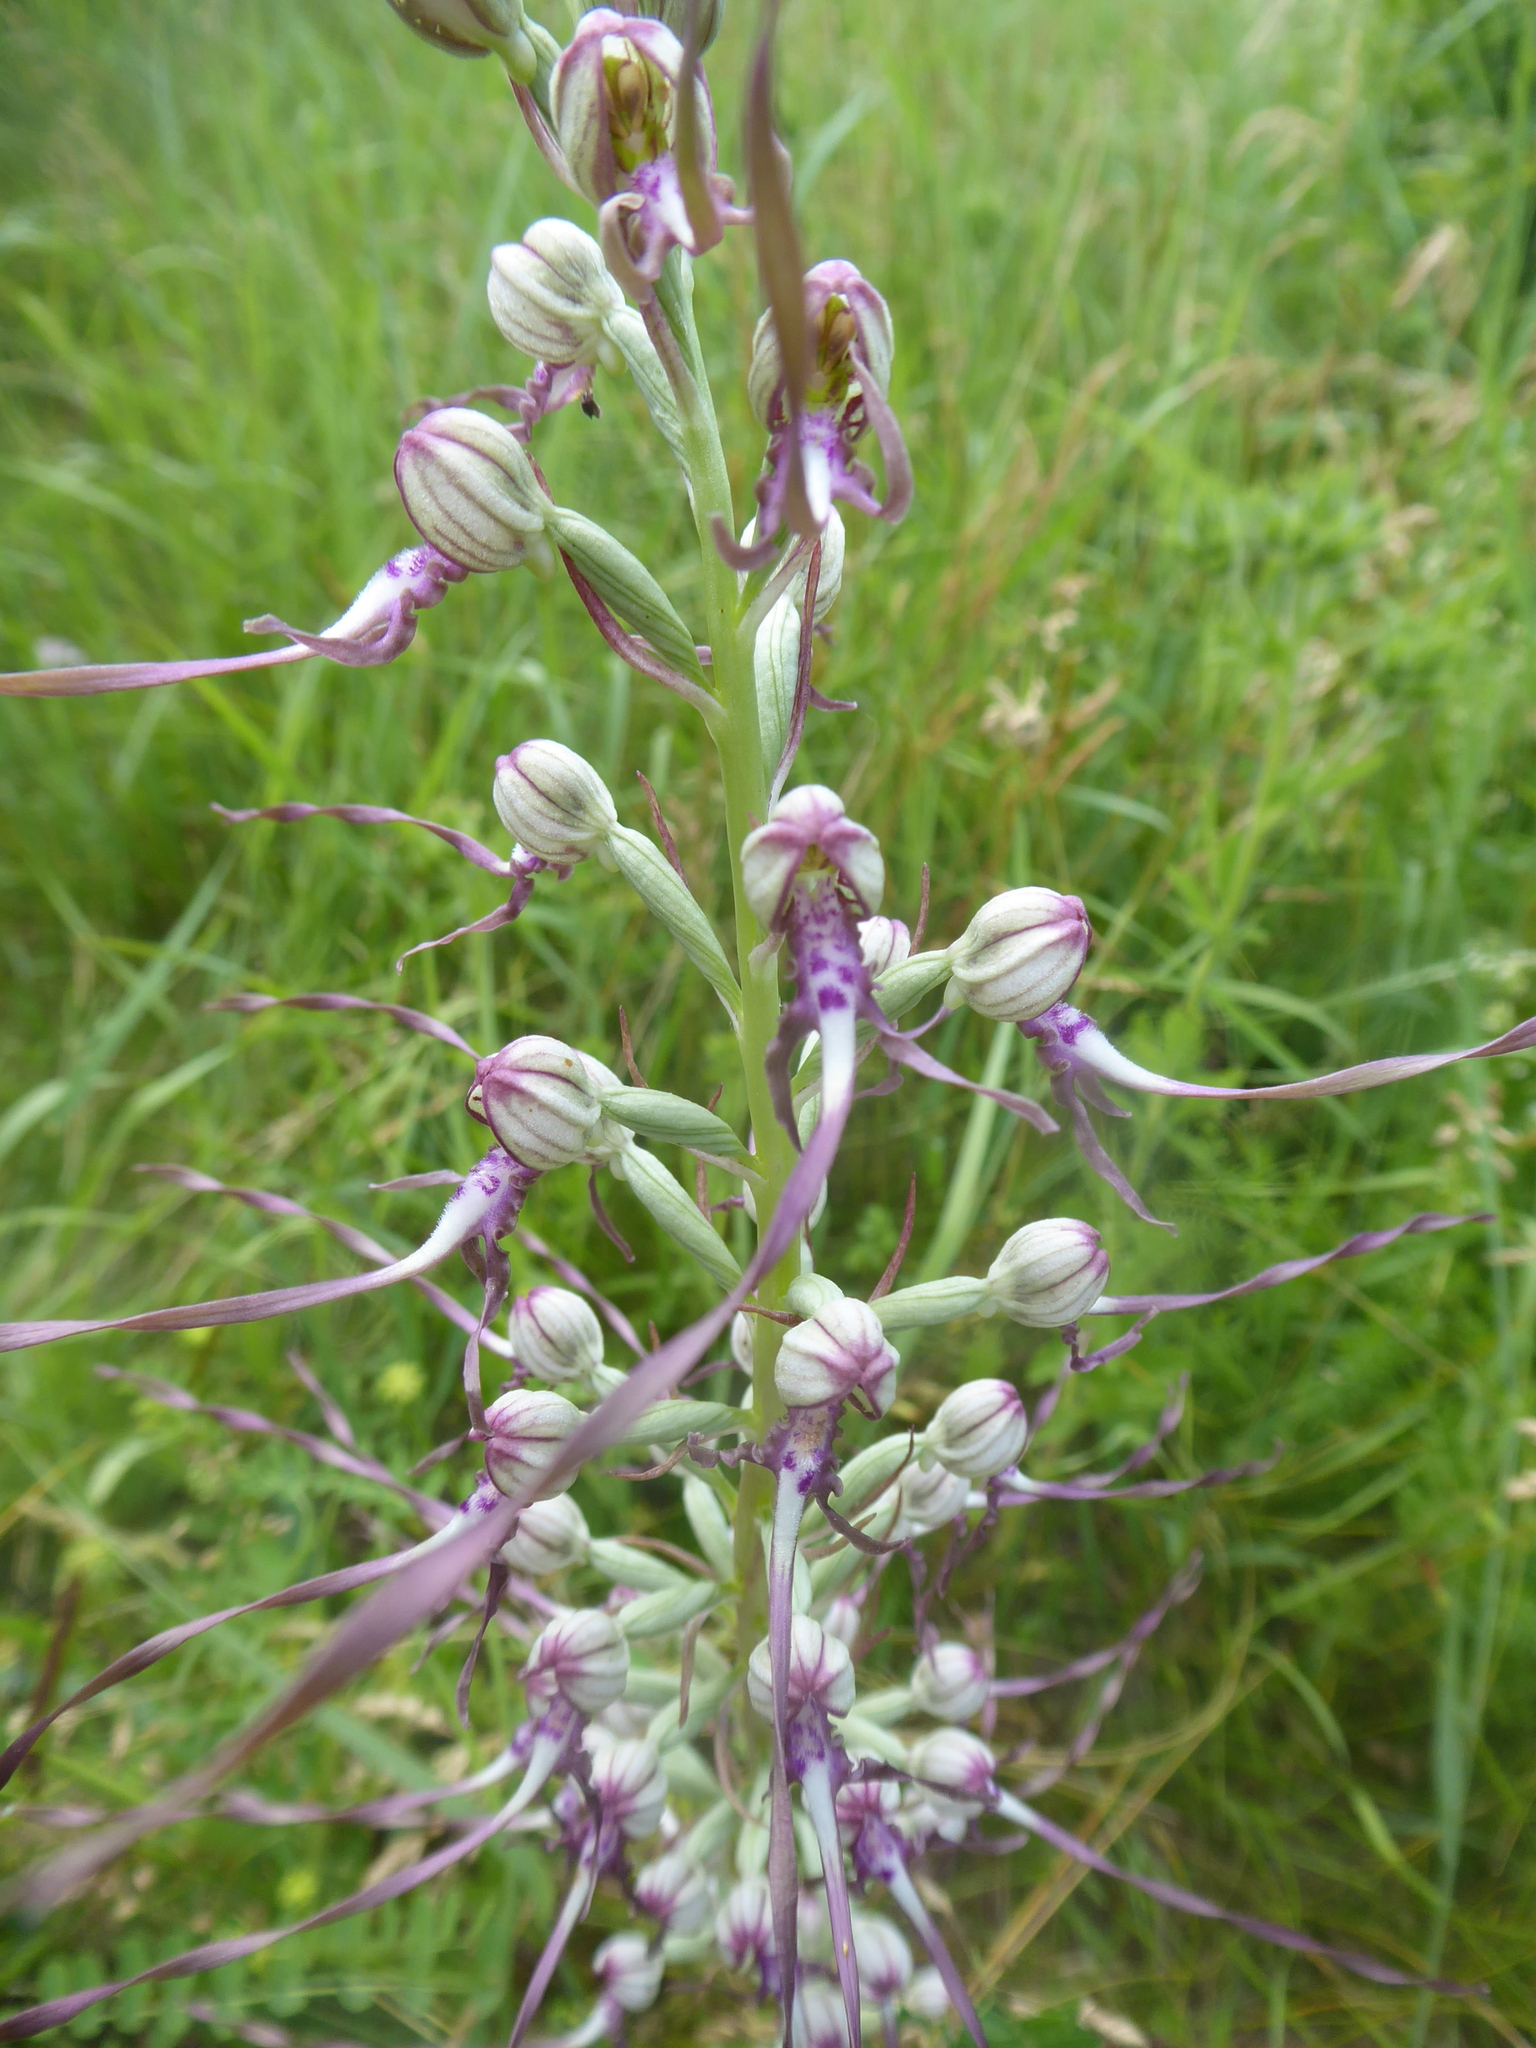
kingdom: Plantae
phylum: Tracheophyta
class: Liliopsida
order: Asparagales
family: Orchidaceae
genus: Himantoglossum
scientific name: Himantoglossum adriaticum
